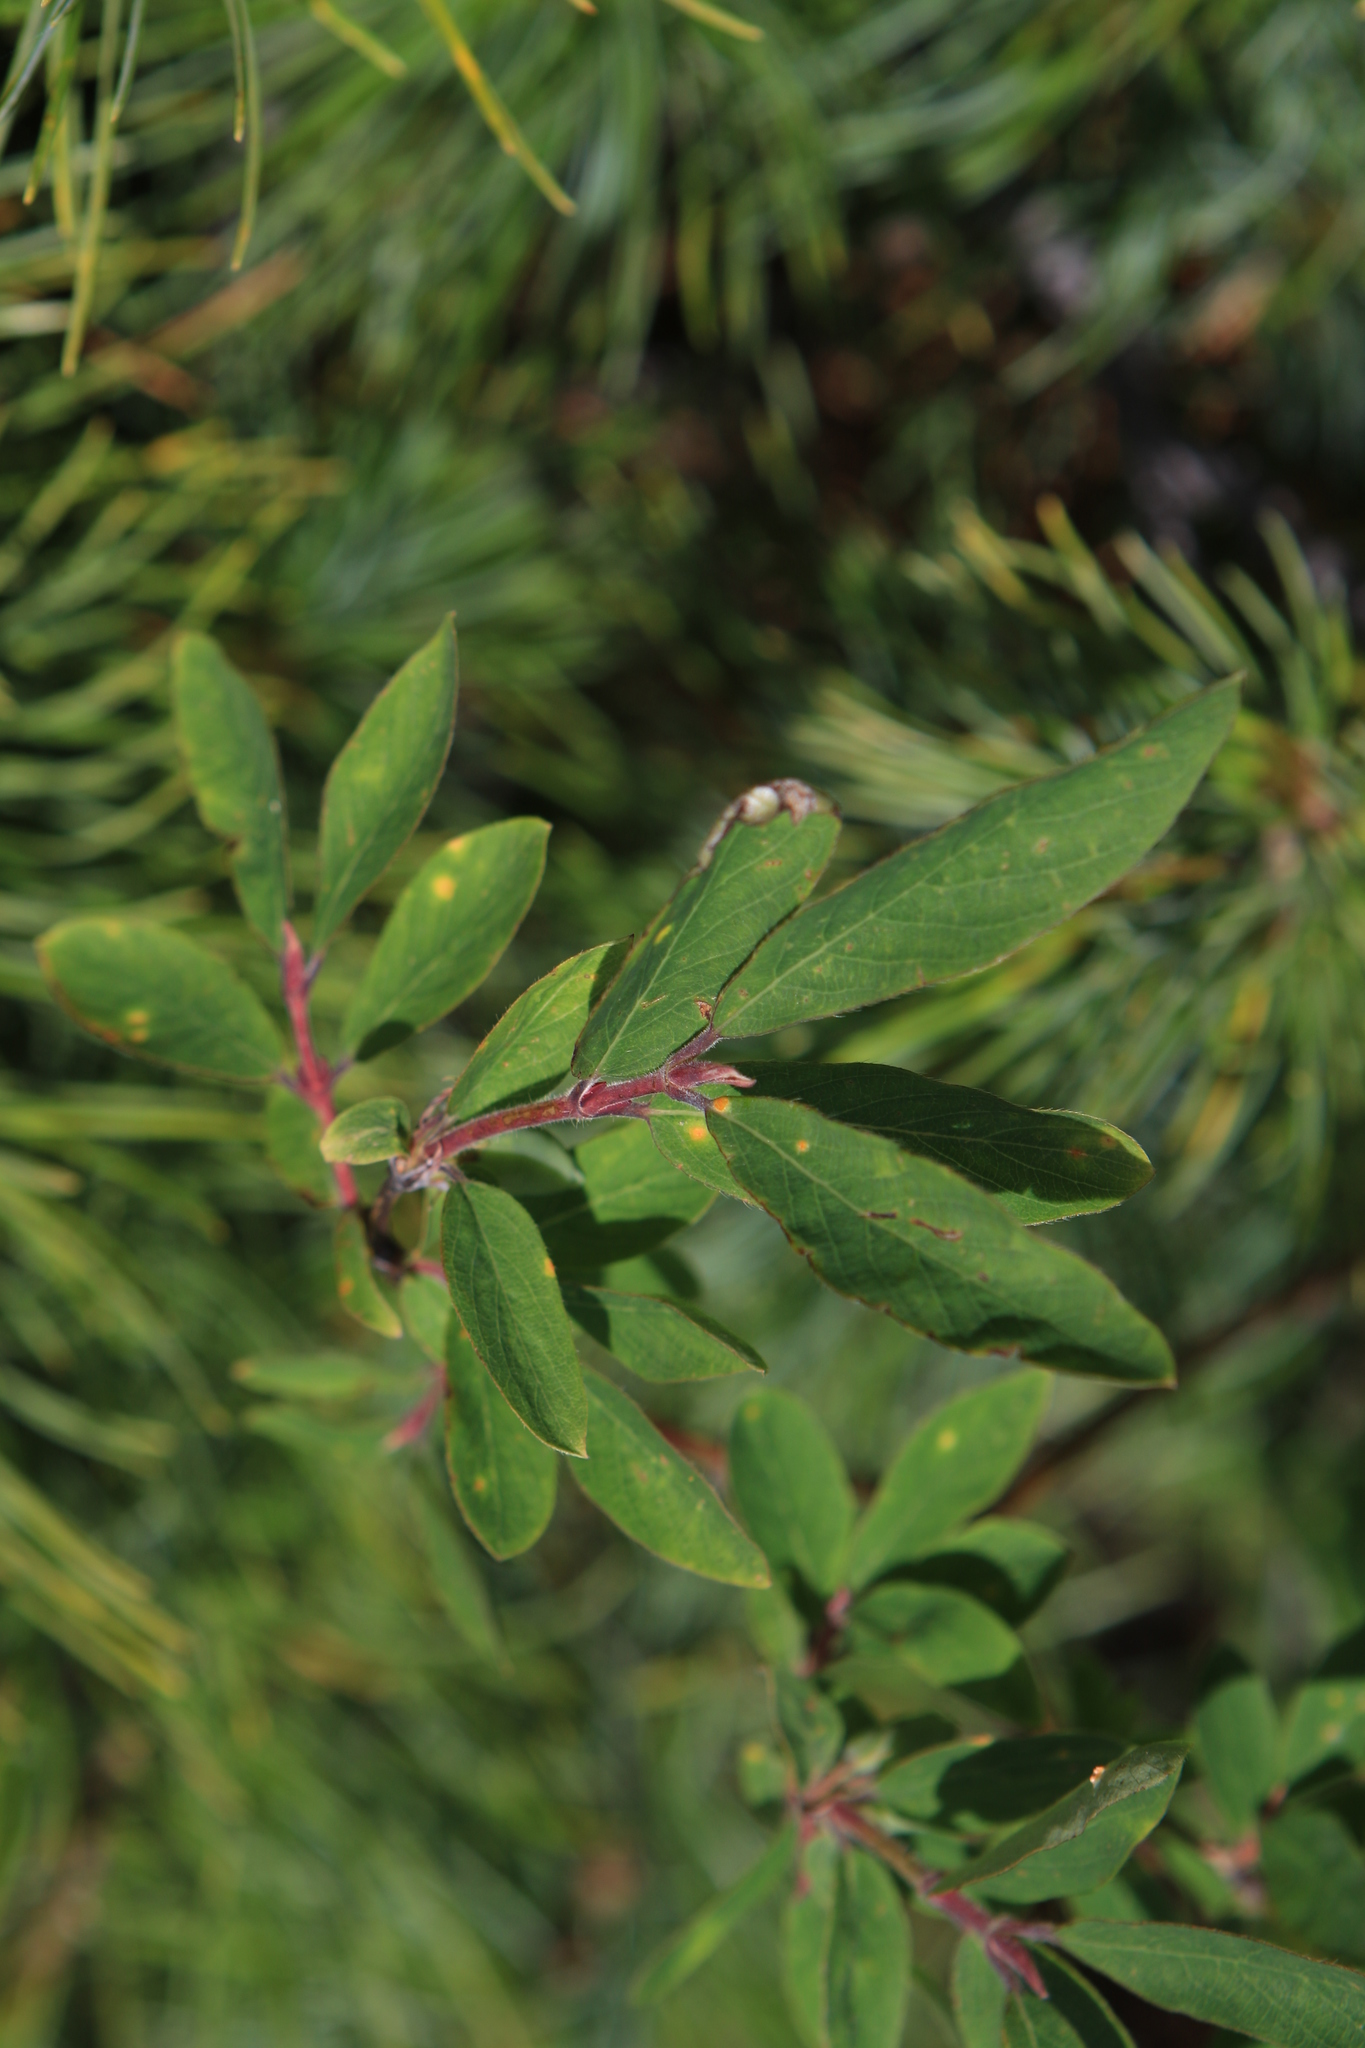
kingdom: Plantae
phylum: Tracheophyta
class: Magnoliopsida
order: Dipsacales
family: Caprifoliaceae
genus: Lonicera
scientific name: Lonicera caerulea
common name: Blue honeysuckle
